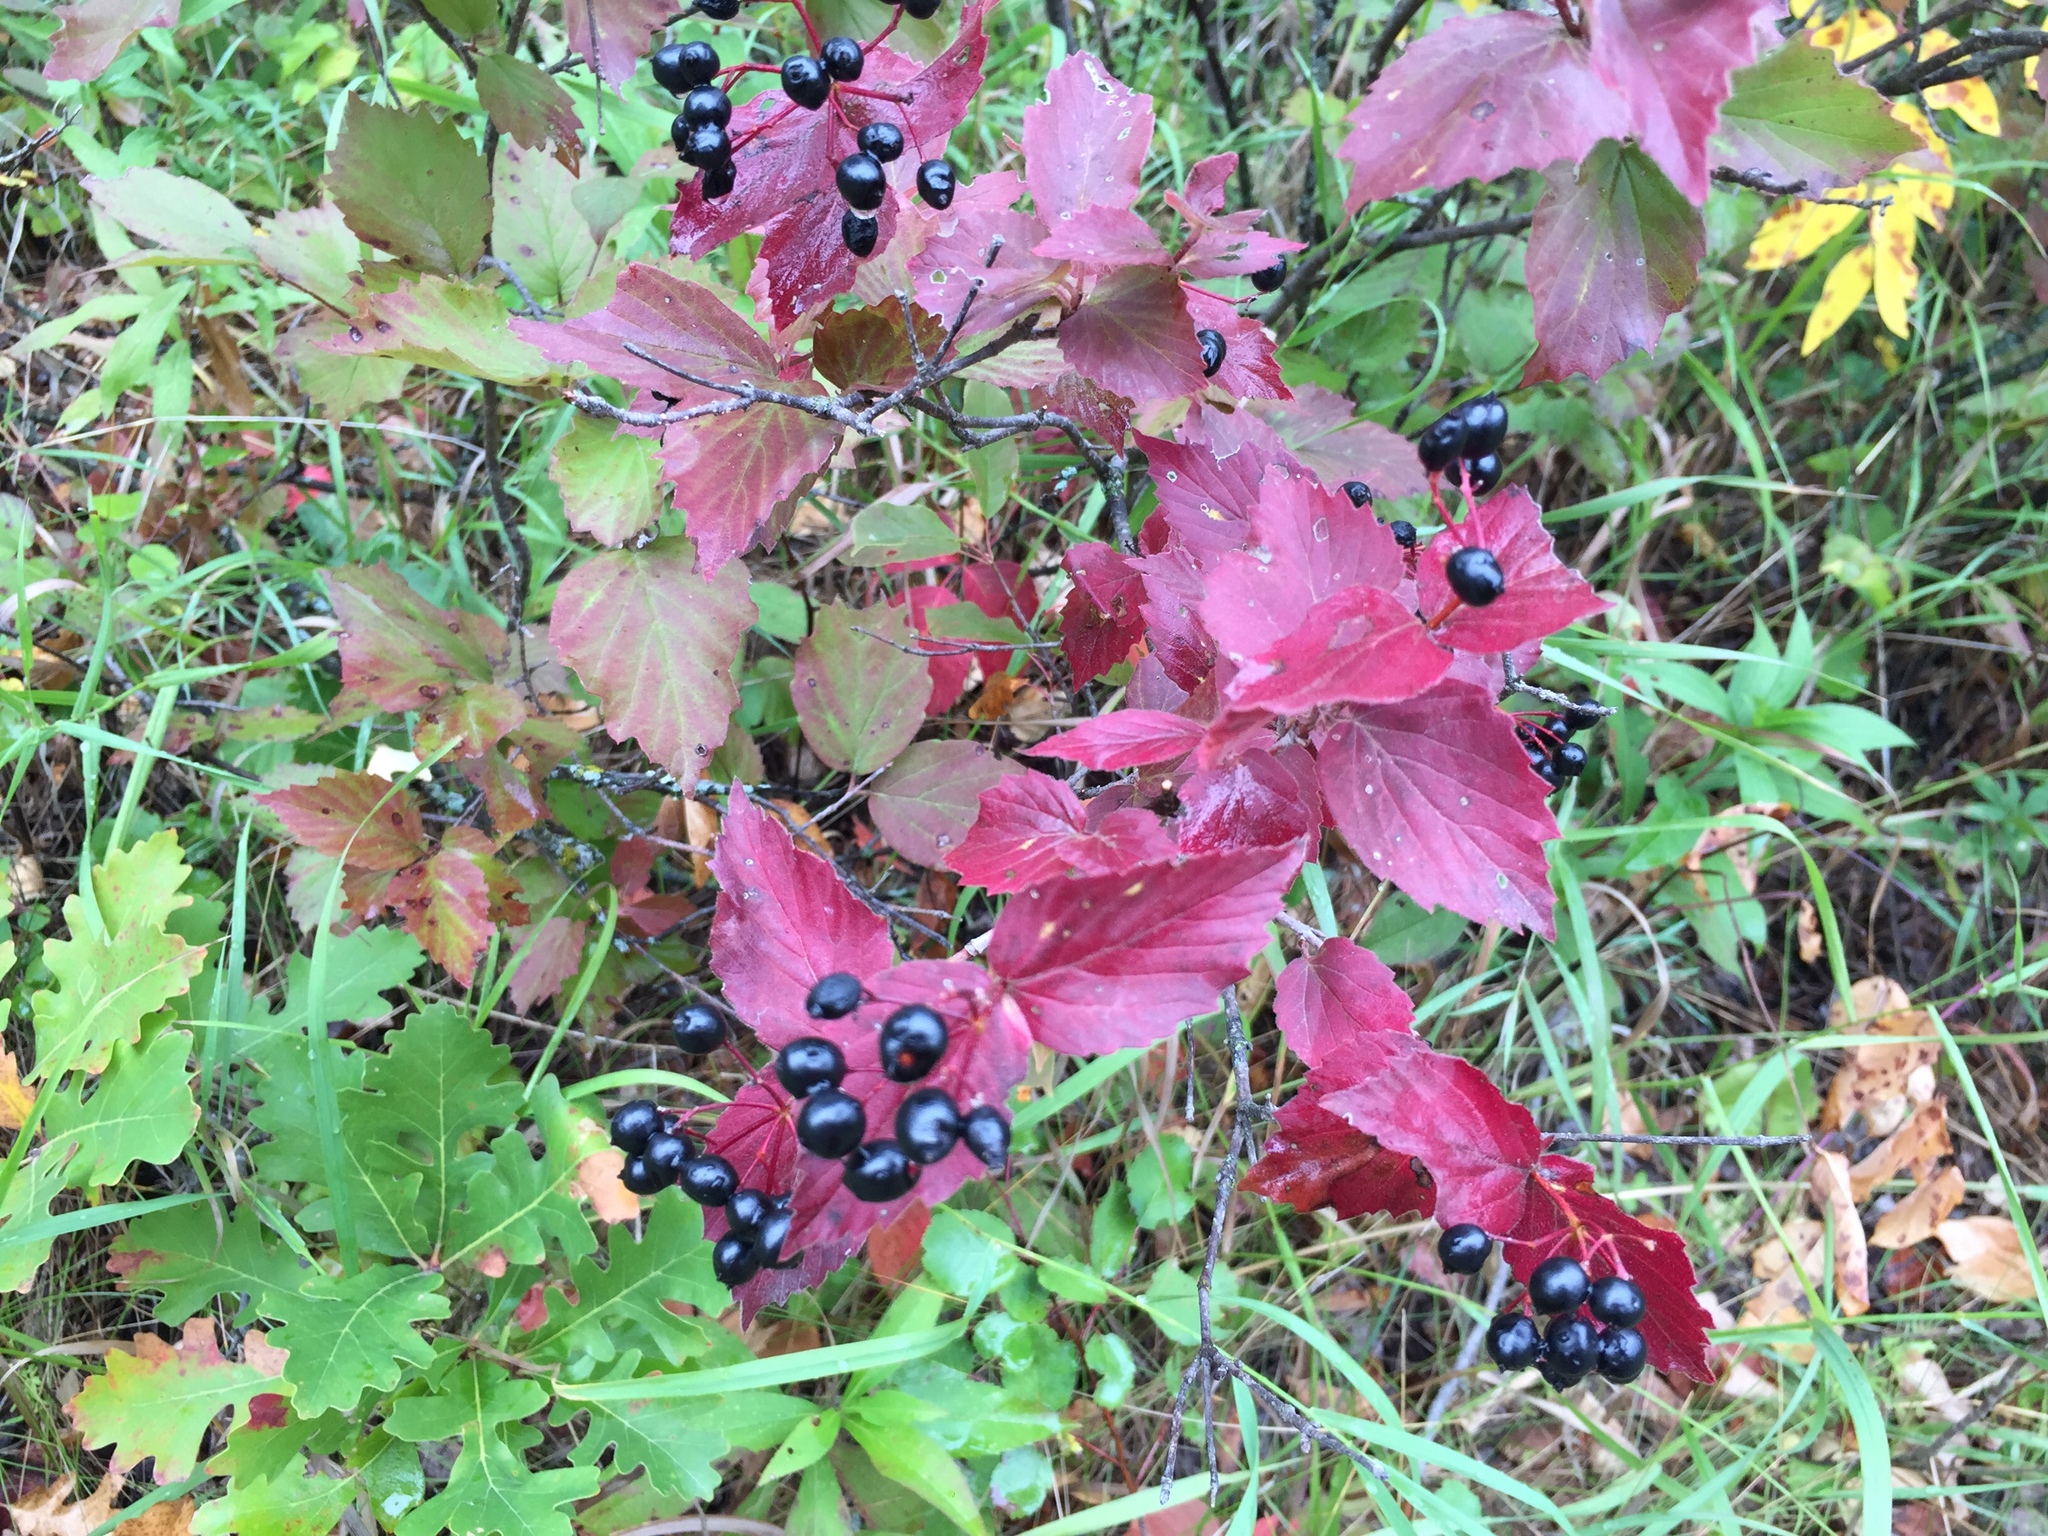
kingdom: Plantae
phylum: Tracheophyta
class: Magnoliopsida
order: Dipsacales
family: Viburnaceae
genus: Viburnum
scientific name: Viburnum rafinesqueanum
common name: Downy arrow-wood
